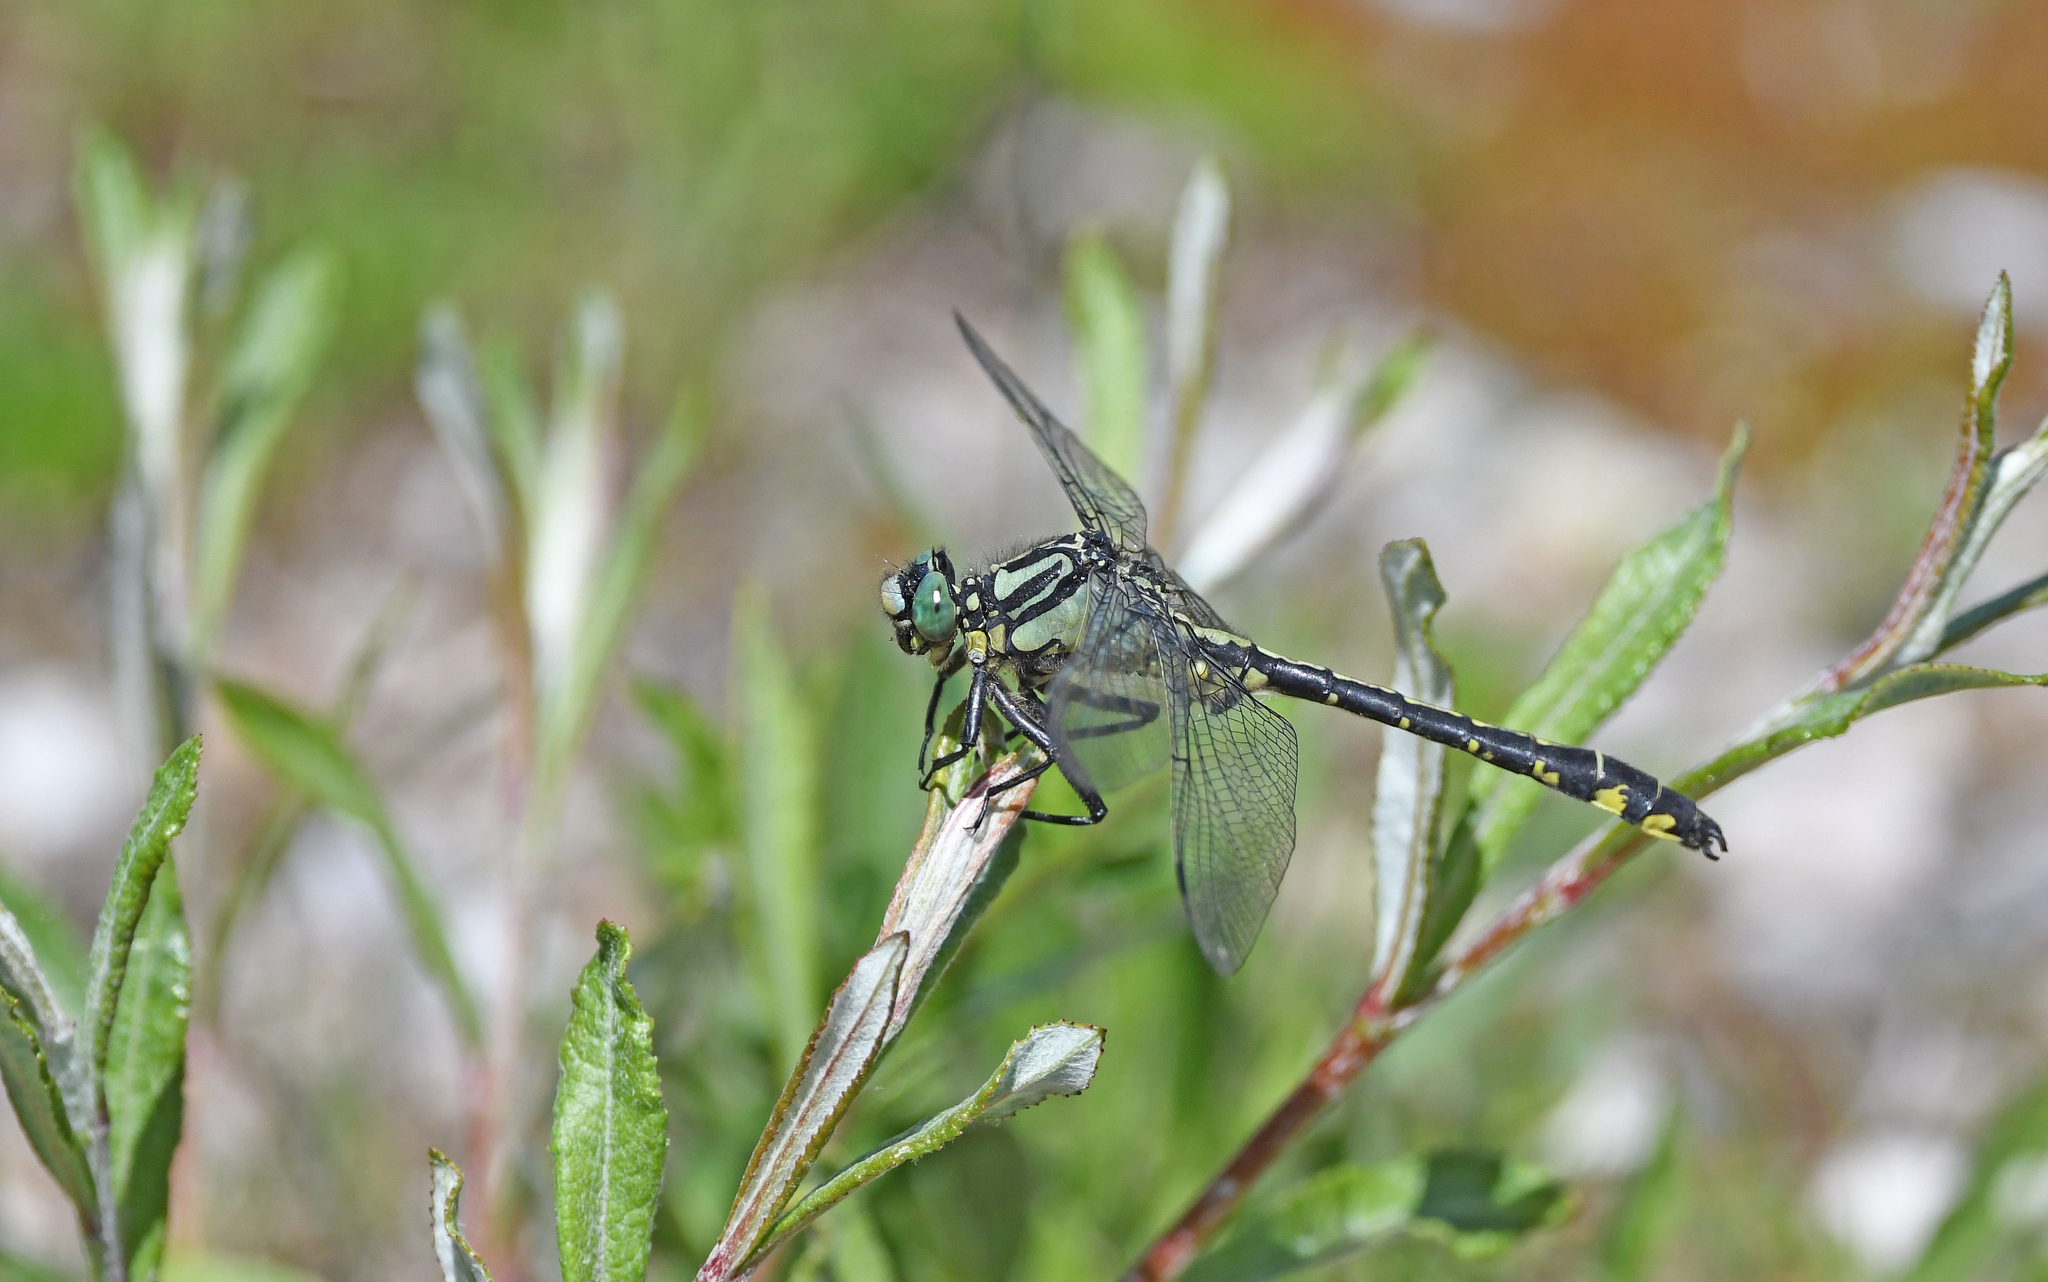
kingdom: Animalia
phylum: Arthropoda
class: Insecta
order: Odonata
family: Gomphidae
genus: Gomphus
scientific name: Gomphus vulgatissimus
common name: Club-tailed dragonfly
